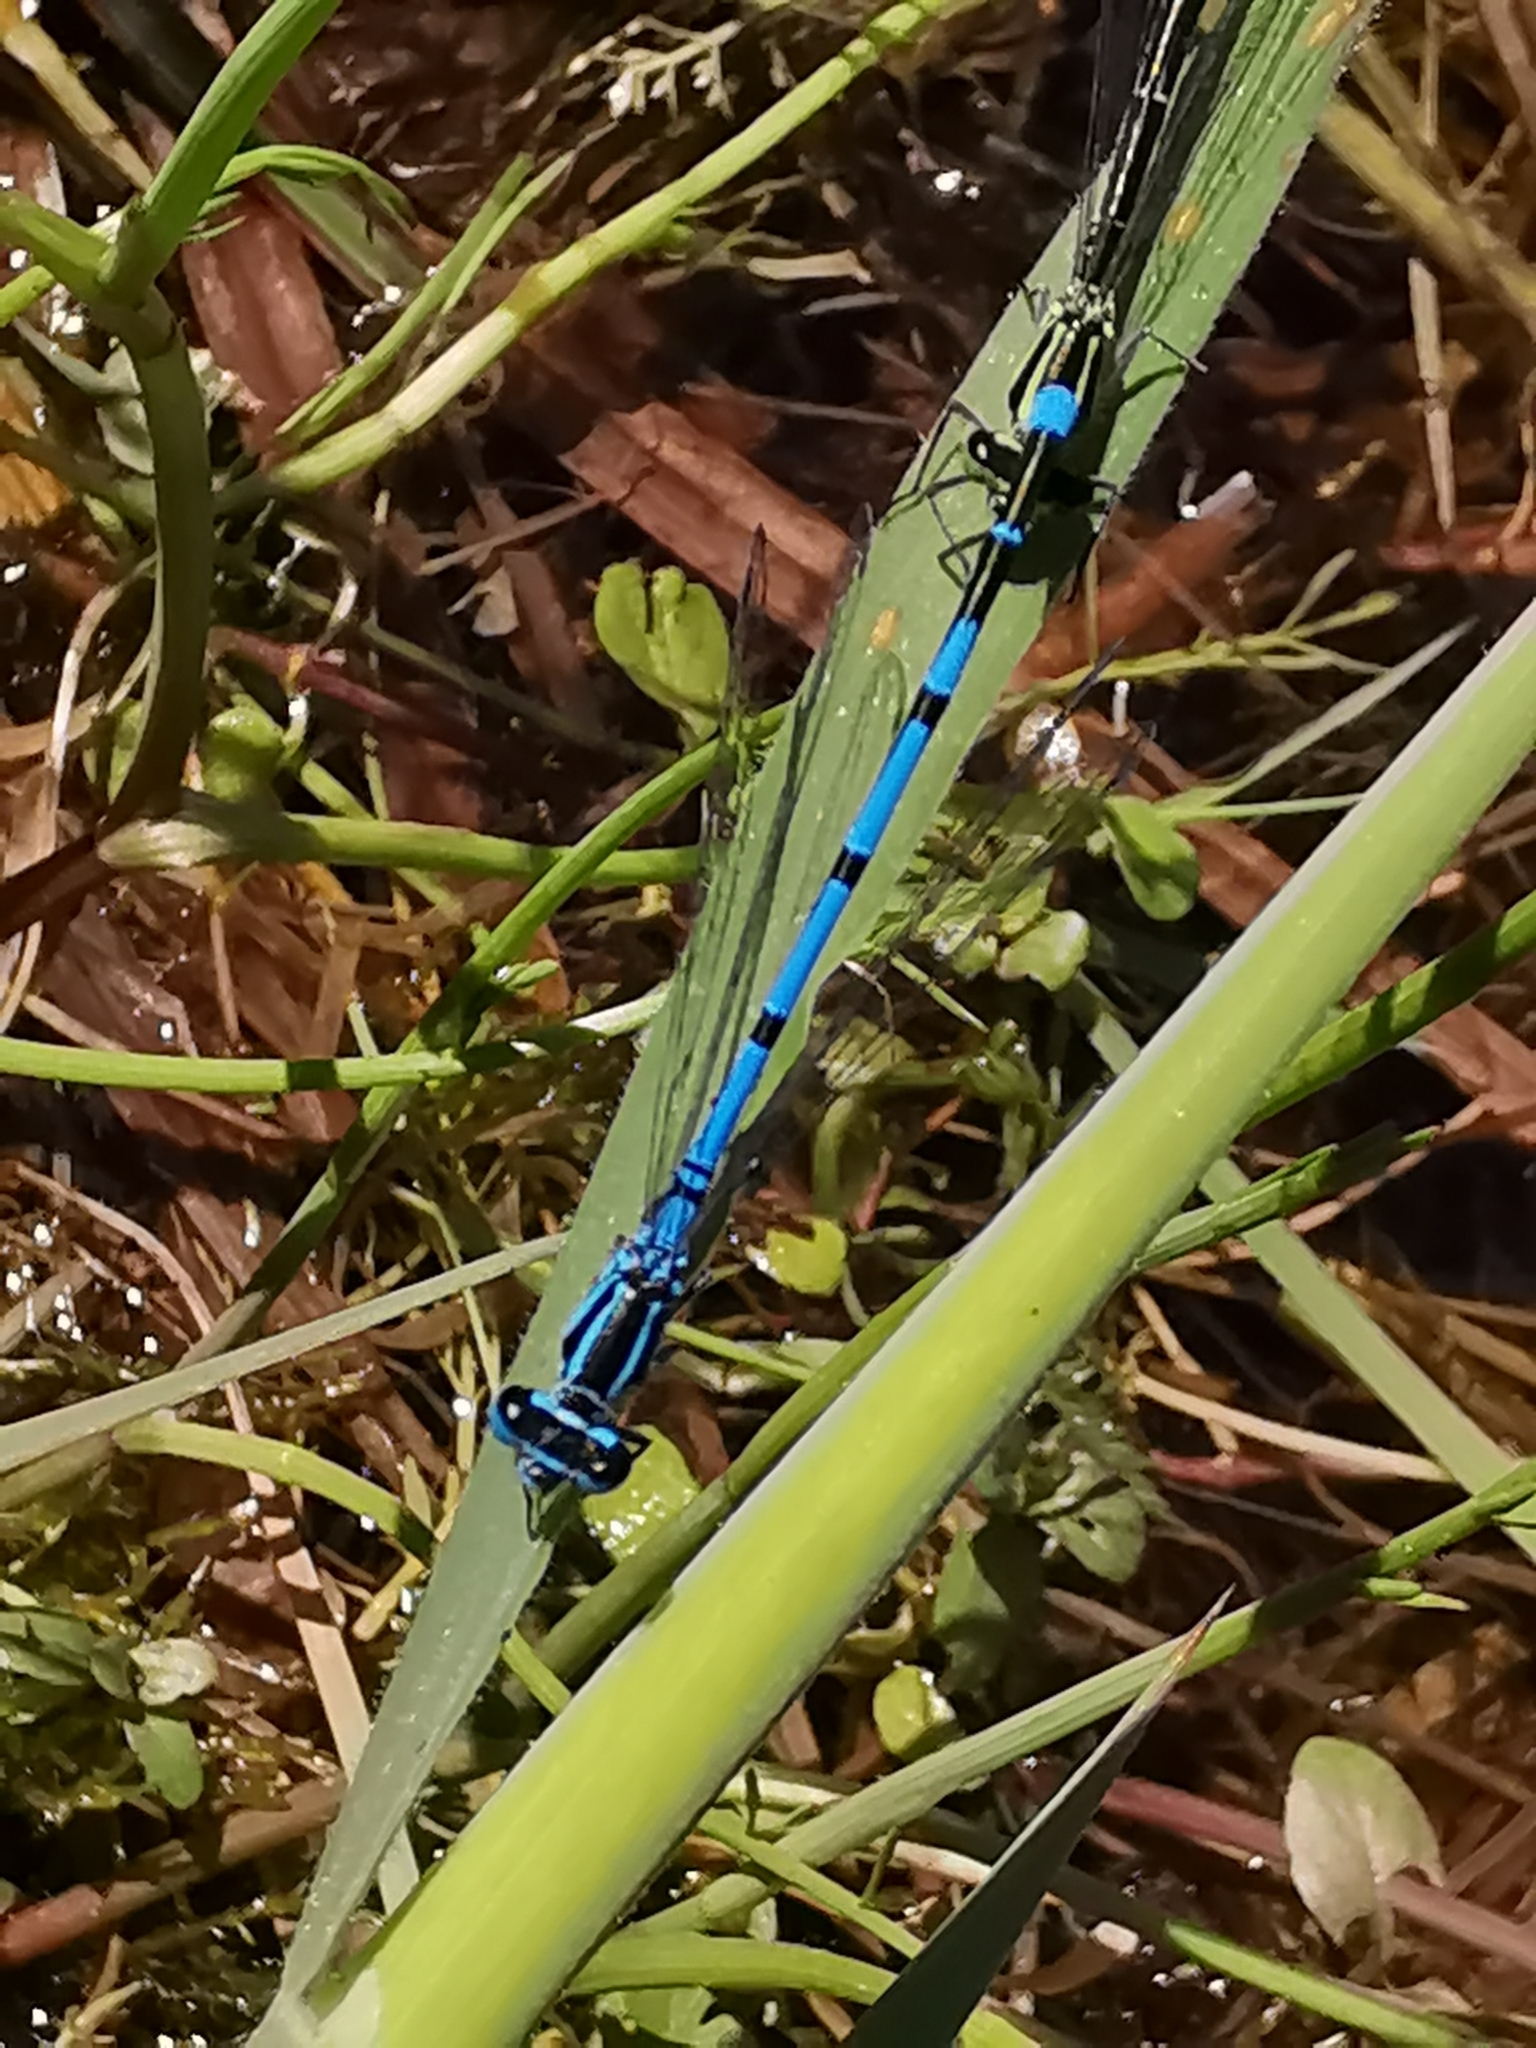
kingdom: Animalia
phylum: Arthropoda
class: Insecta
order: Odonata
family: Coenagrionidae
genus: Coenagrion
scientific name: Coenagrion puella
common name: Azure damselfly
